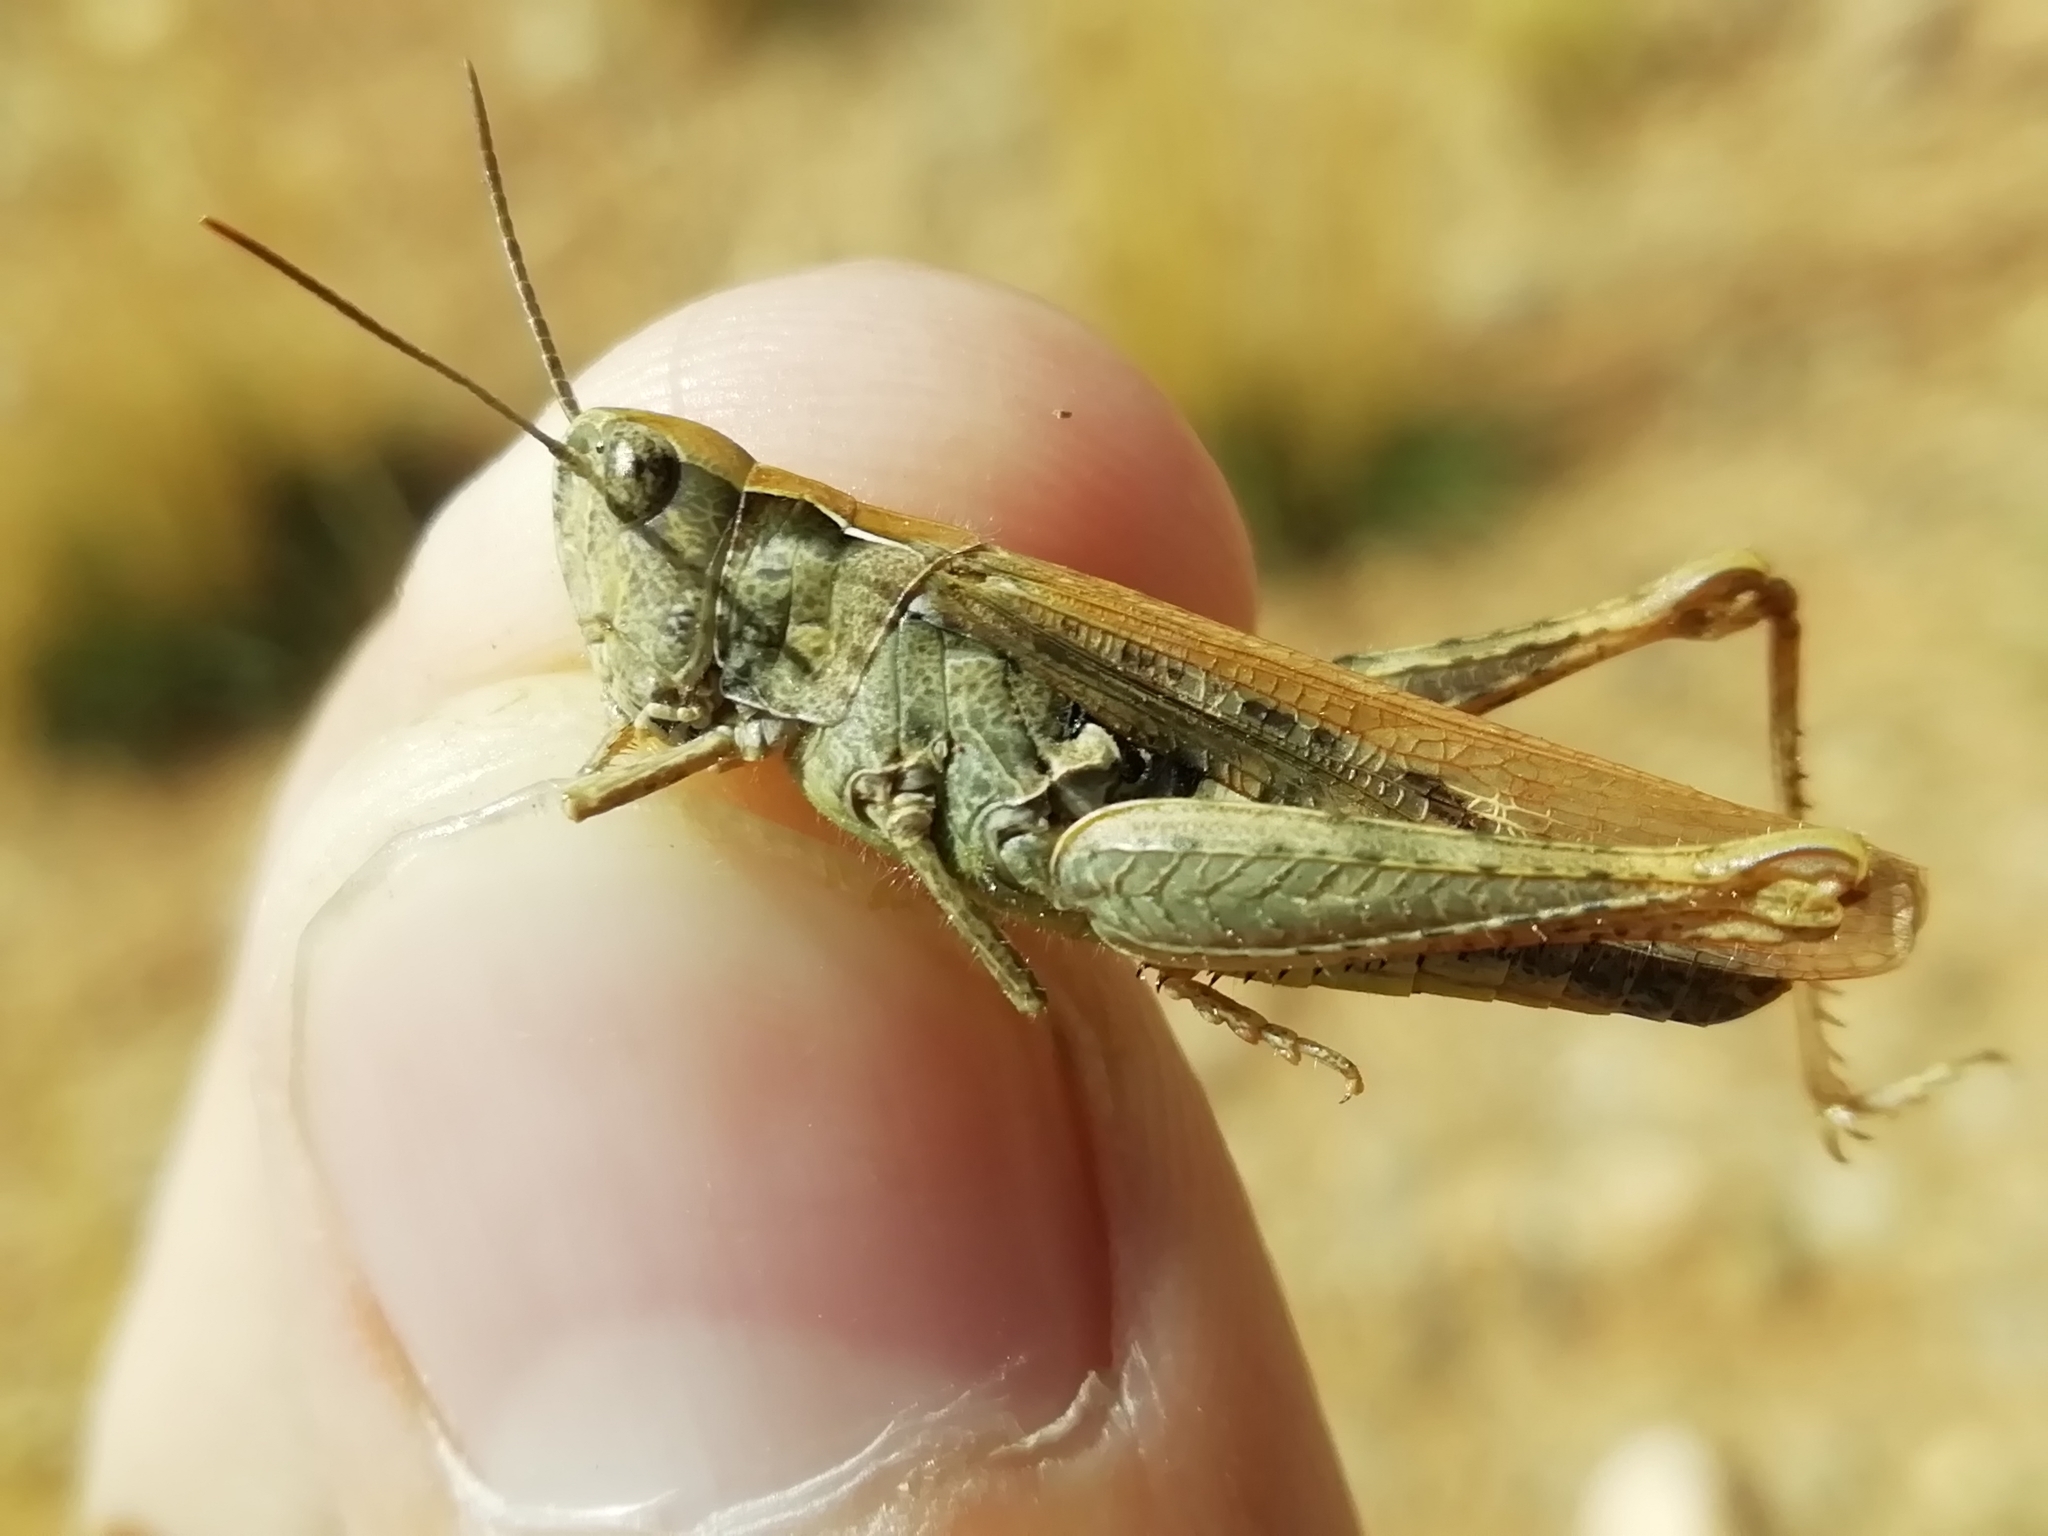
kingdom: Animalia
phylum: Arthropoda
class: Insecta
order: Orthoptera
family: Acrididae
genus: Chorthippus
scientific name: Chorthippus miramae
